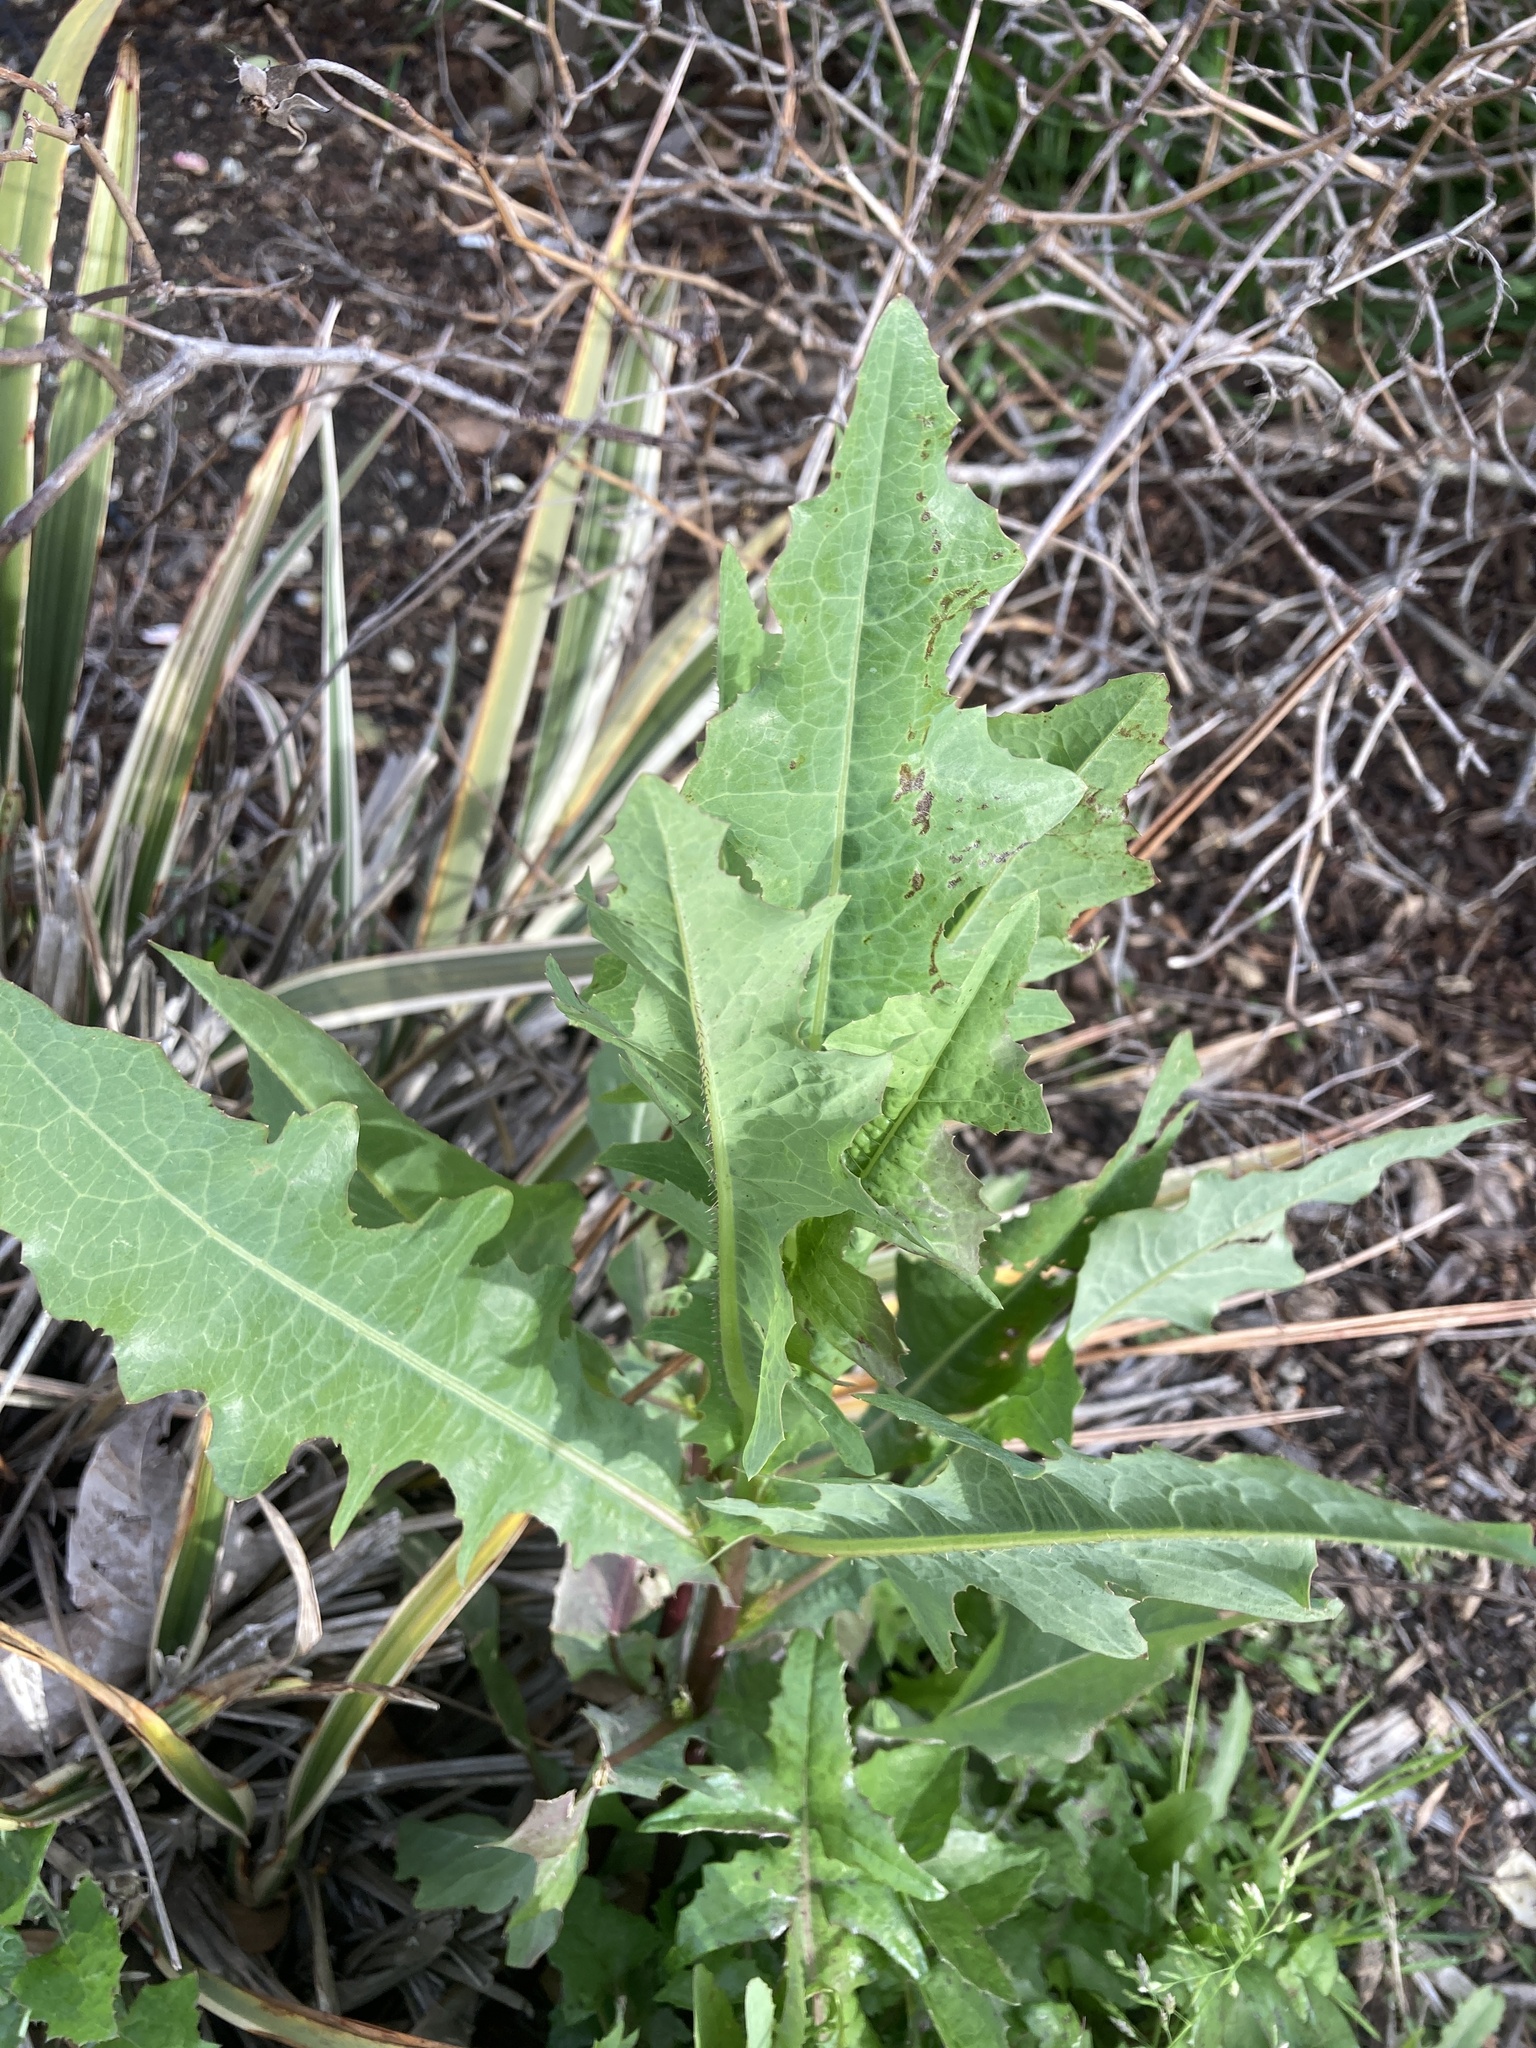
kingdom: Plantae
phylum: Tracheophyta
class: Magnoliopsida
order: Asterales
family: Asteraceae
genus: Lactuca
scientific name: Lactuca serriola
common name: Prickly lettuce
